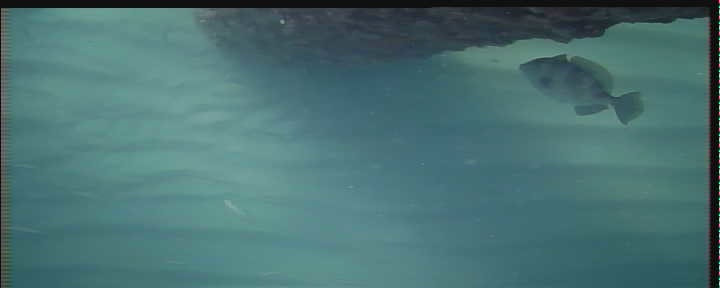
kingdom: Animalia
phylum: Chordata
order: Tetraodontiformes
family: Balistidae
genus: Balistes
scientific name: Balistes capriscus
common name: Grey triggerfish
